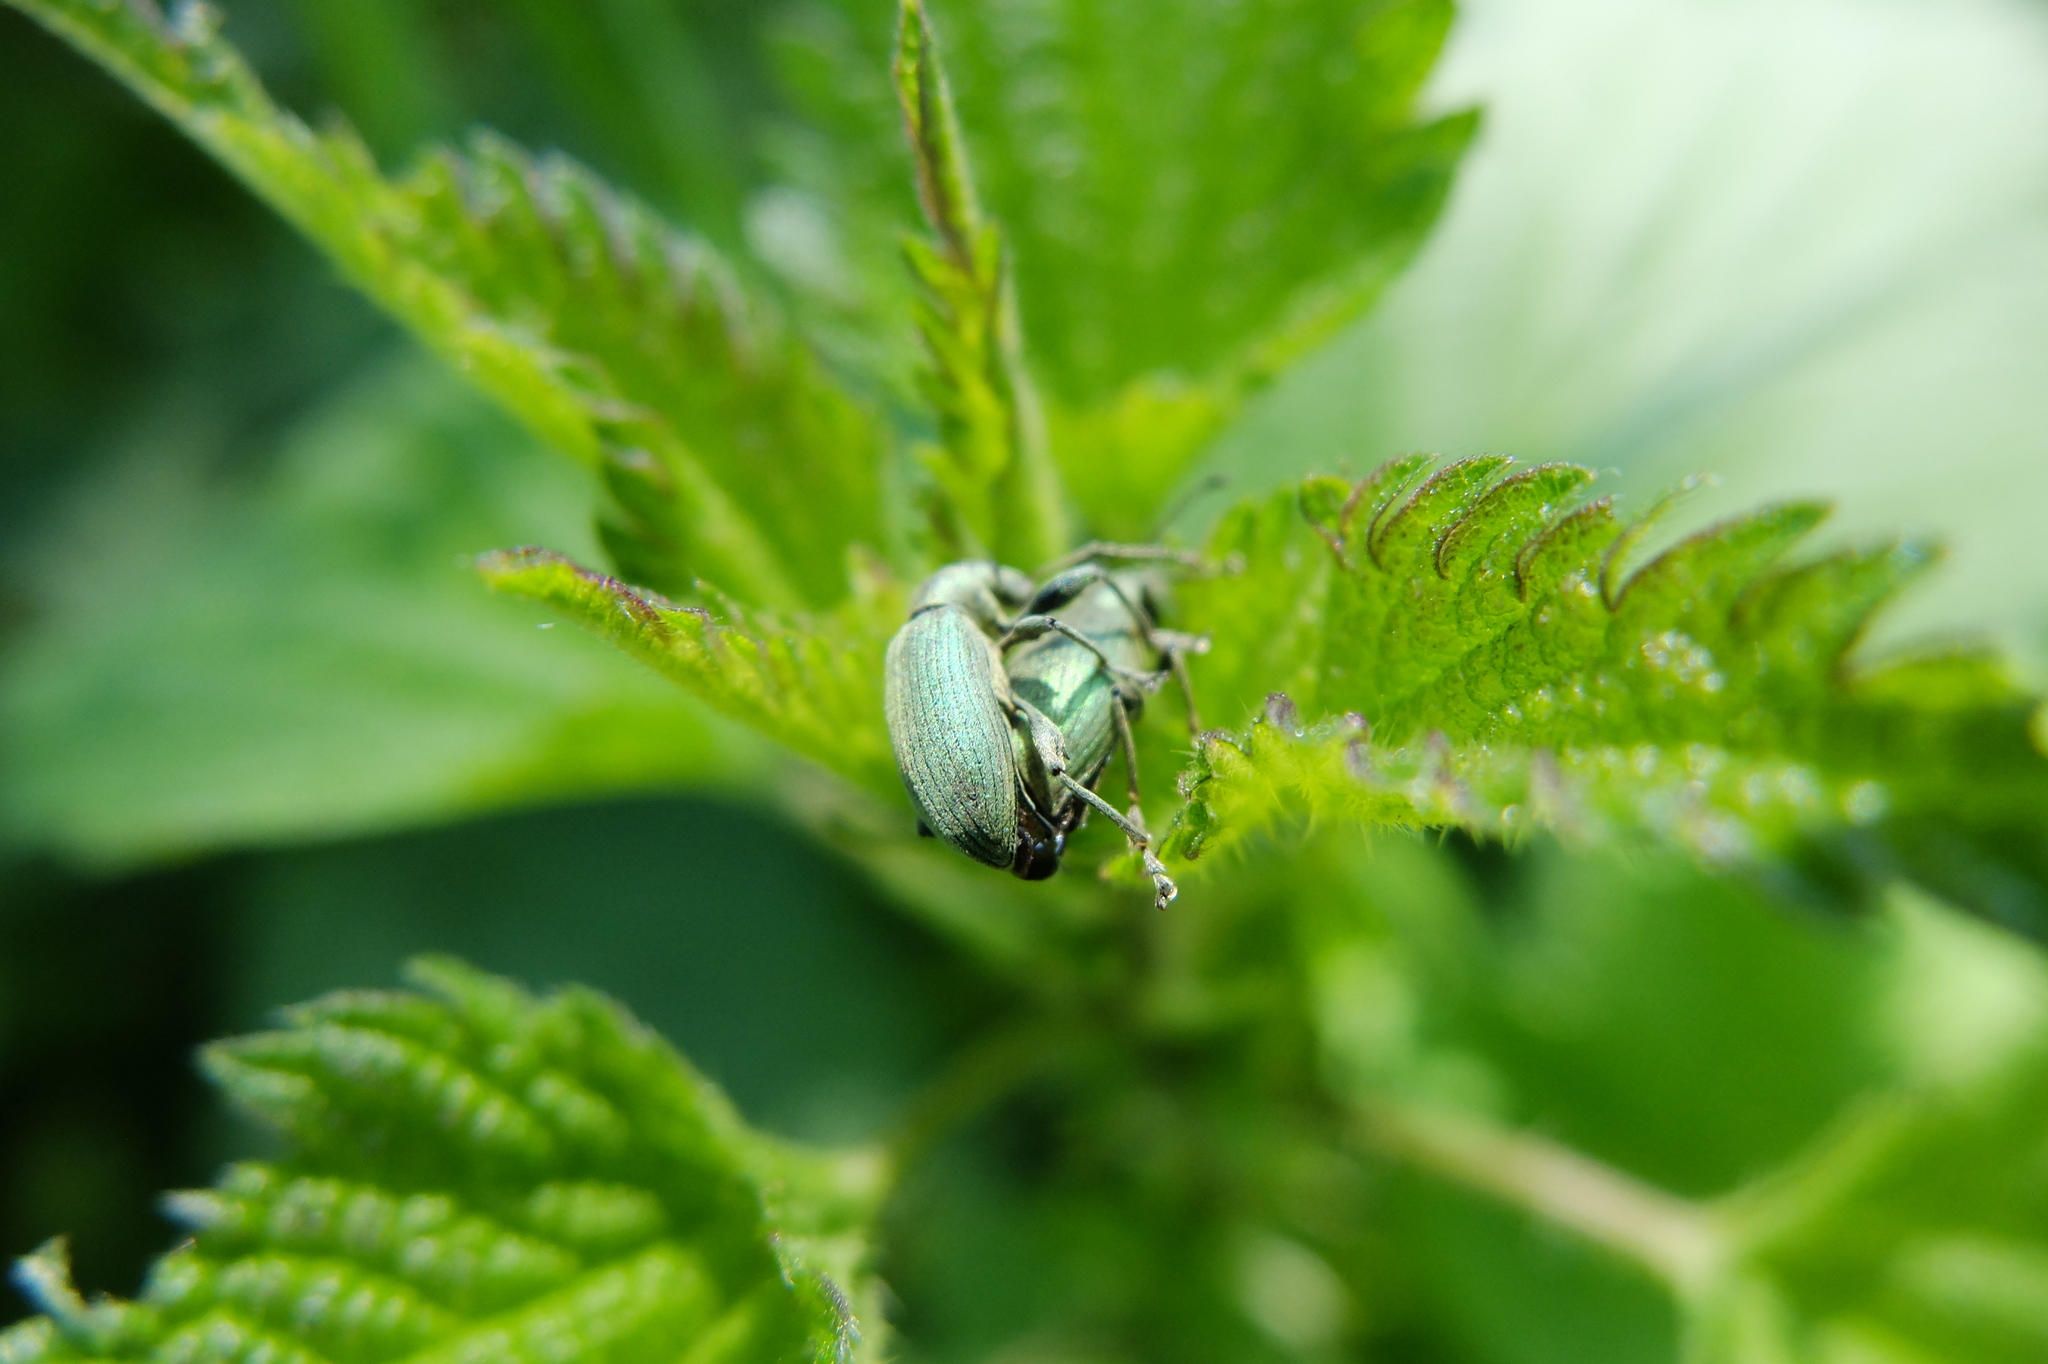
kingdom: Animalia
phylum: Arthropoda
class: Insecta
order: Coleoptera
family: Curculionidae
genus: Phyllobius
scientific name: Phyllobius pomaceus
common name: Green nettle weevil
